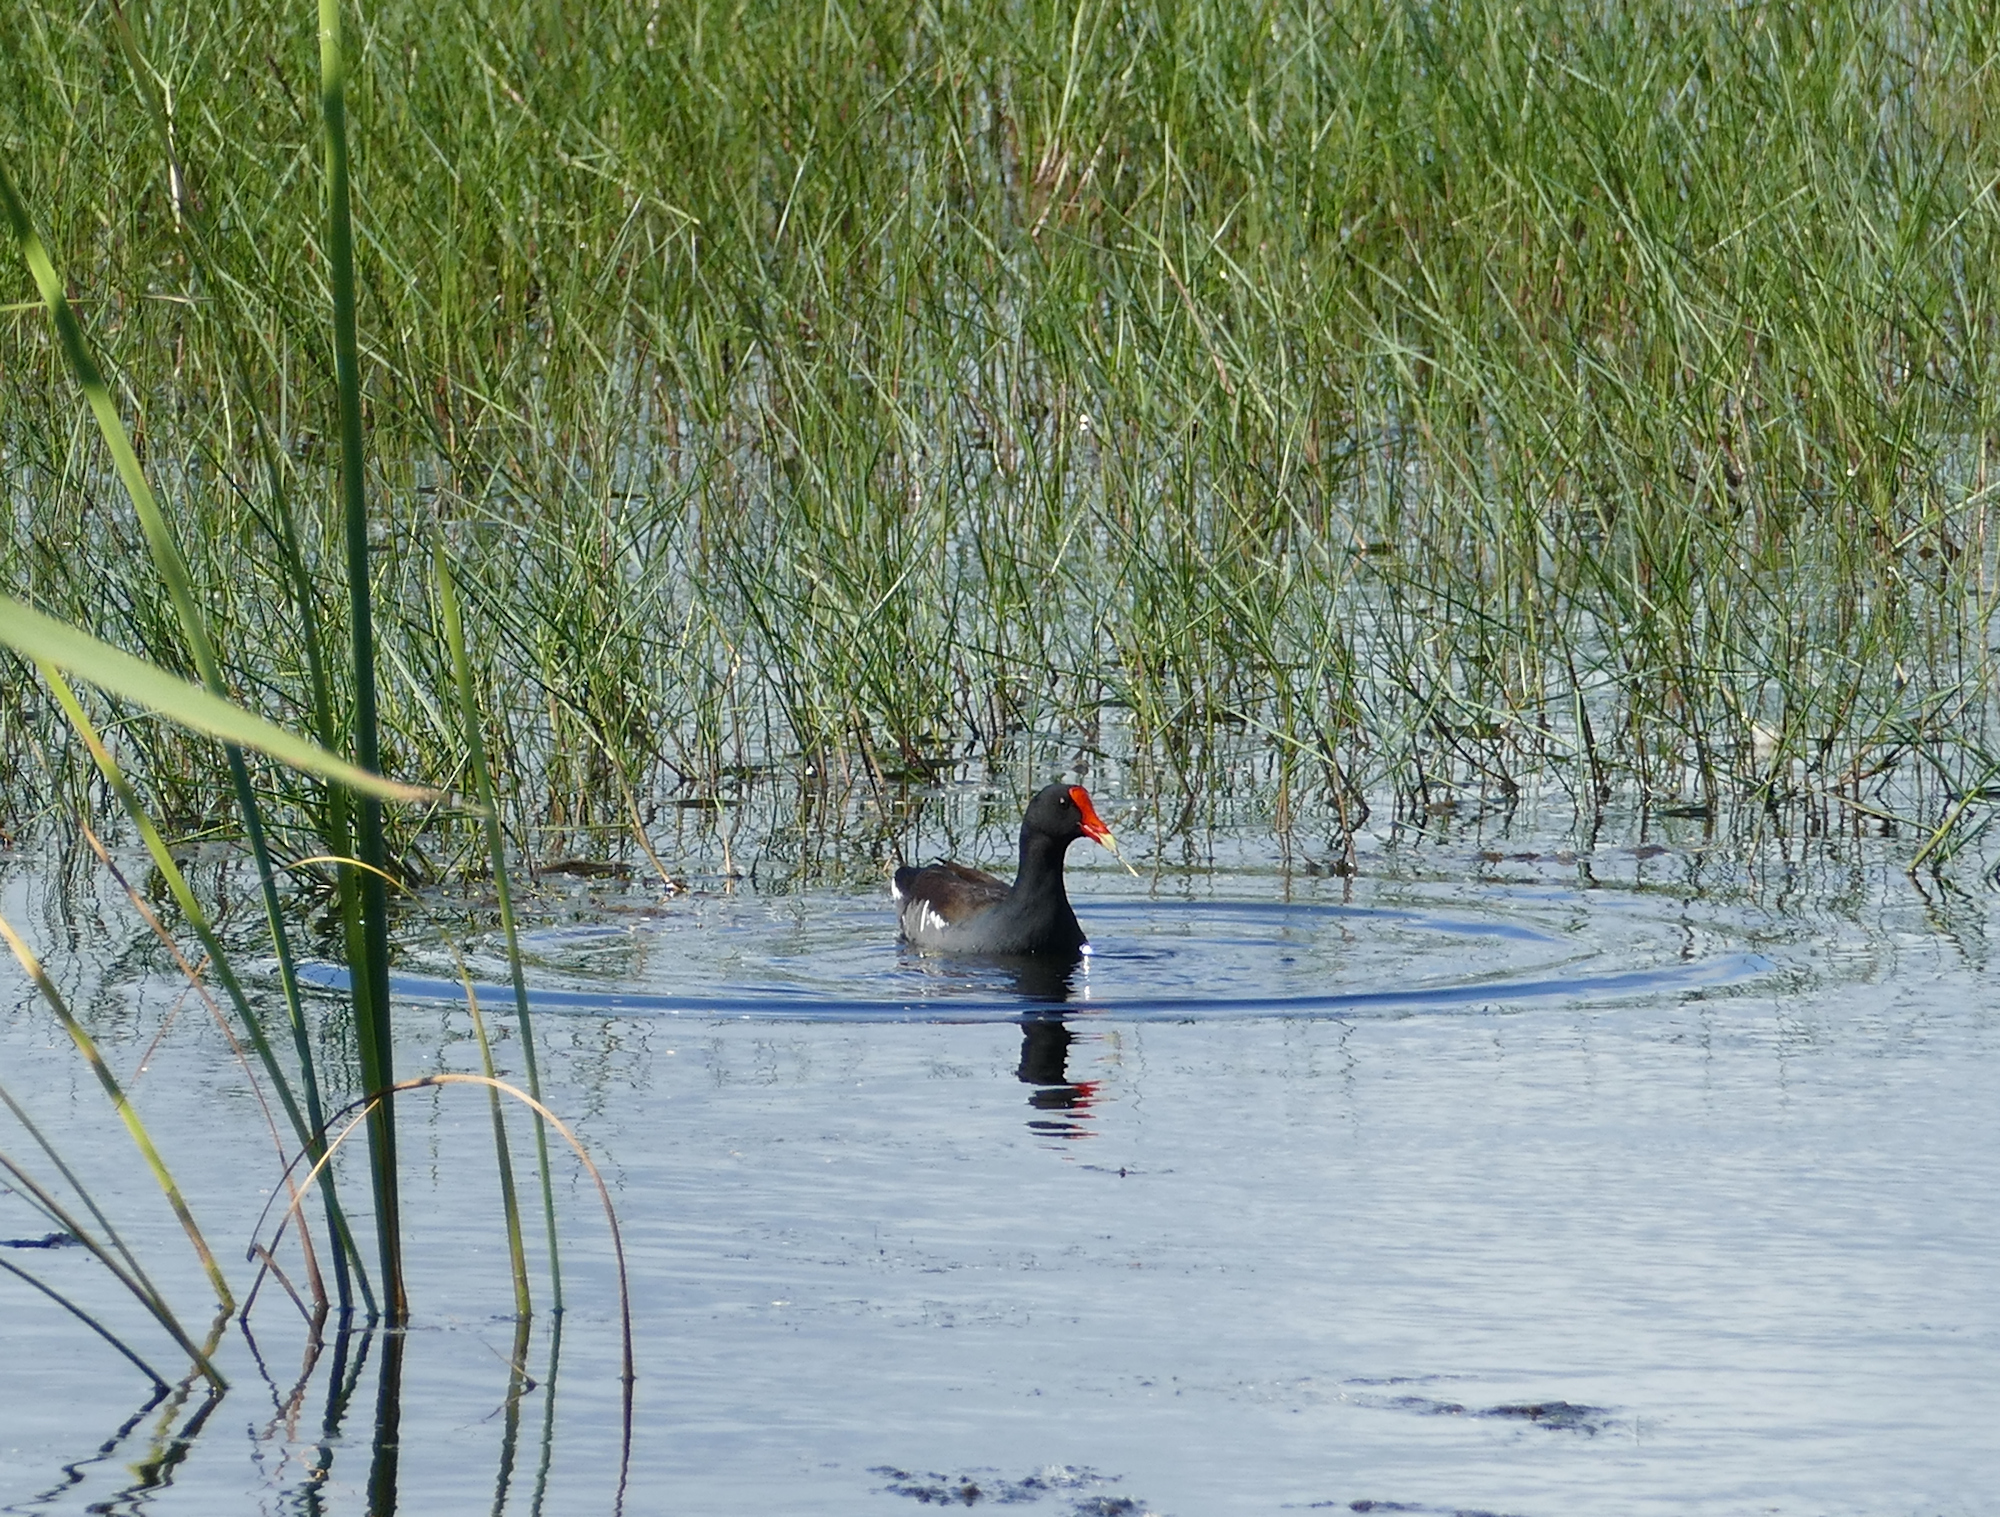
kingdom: Animalia
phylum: Chordata
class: Aves
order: Gruiformes
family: Rallidae
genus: Gallinula
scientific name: Gallinula chloropus
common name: Common moorhen
